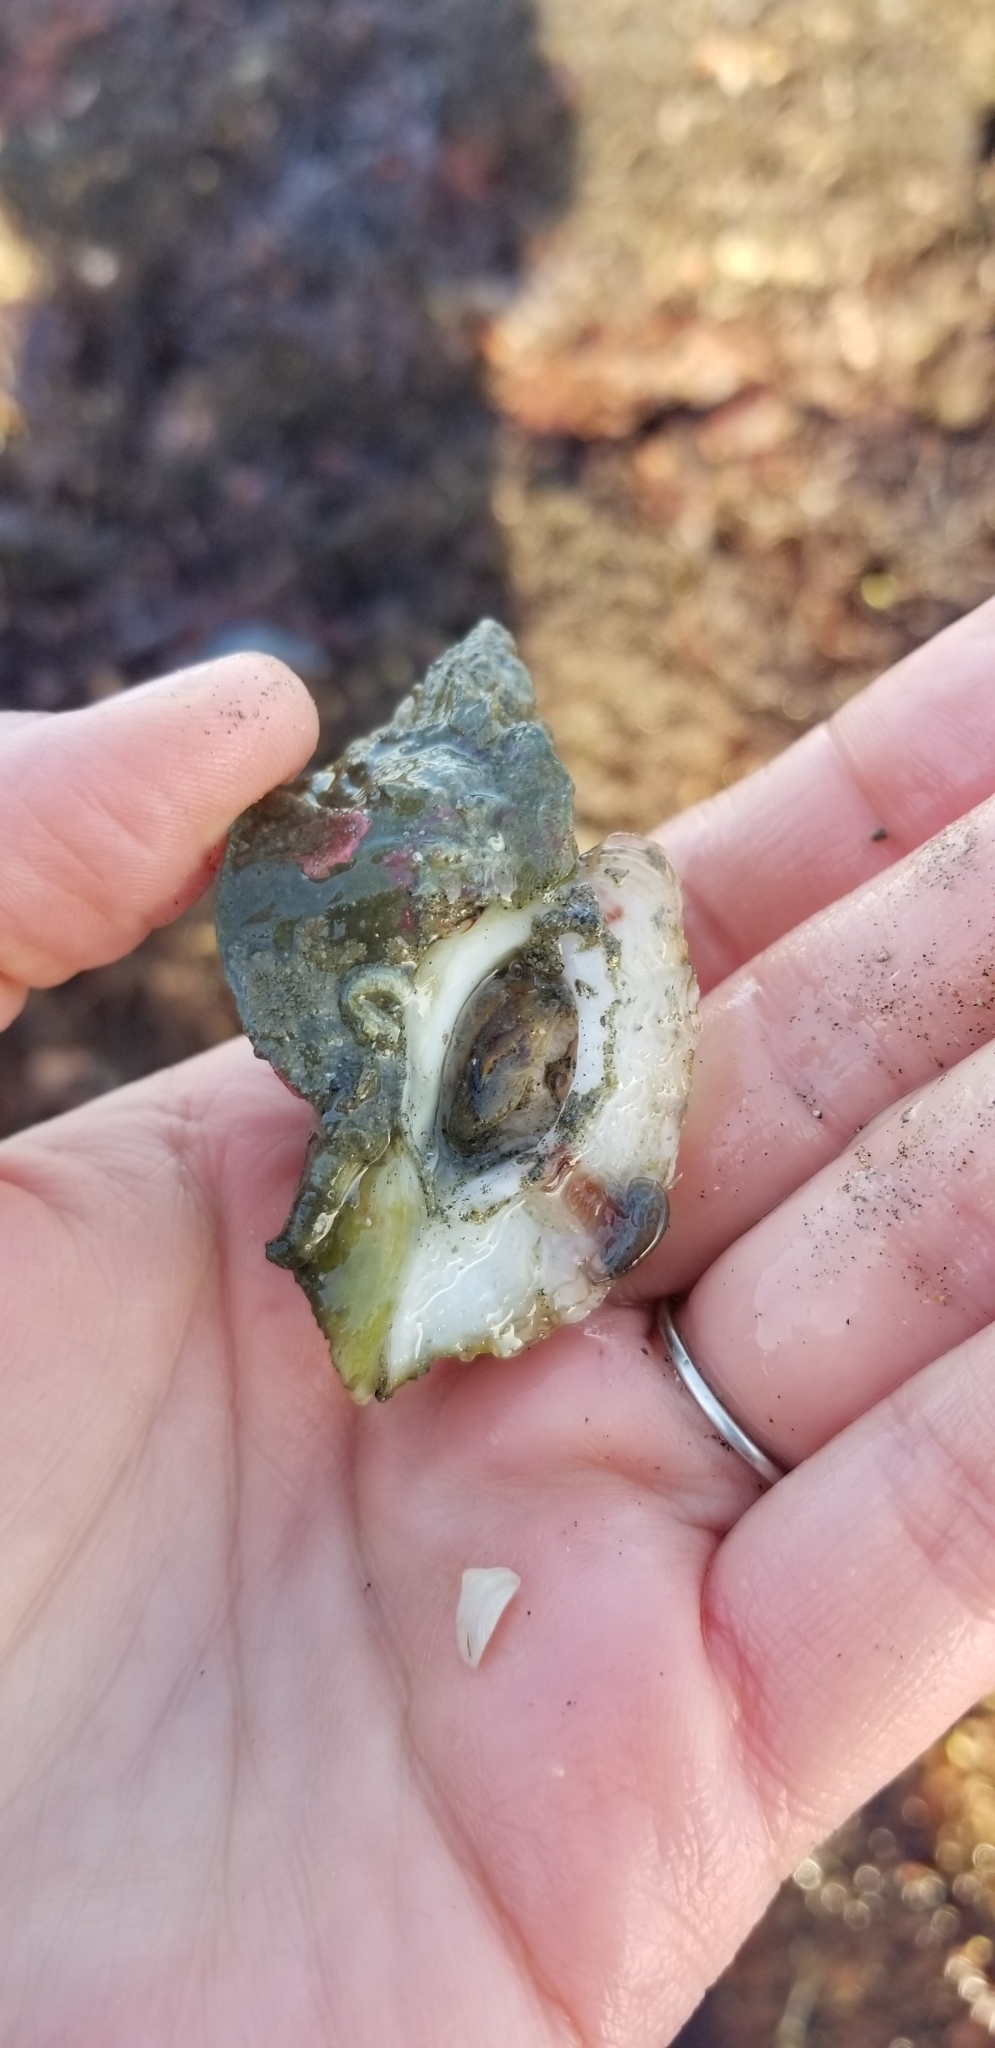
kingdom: Animalia
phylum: Mollusca
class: Gastropoda
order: Neogastropoda
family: Muricidae
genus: Ceratostoma
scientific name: Ceratostoma foliatum
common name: Foliate thorn purpura
